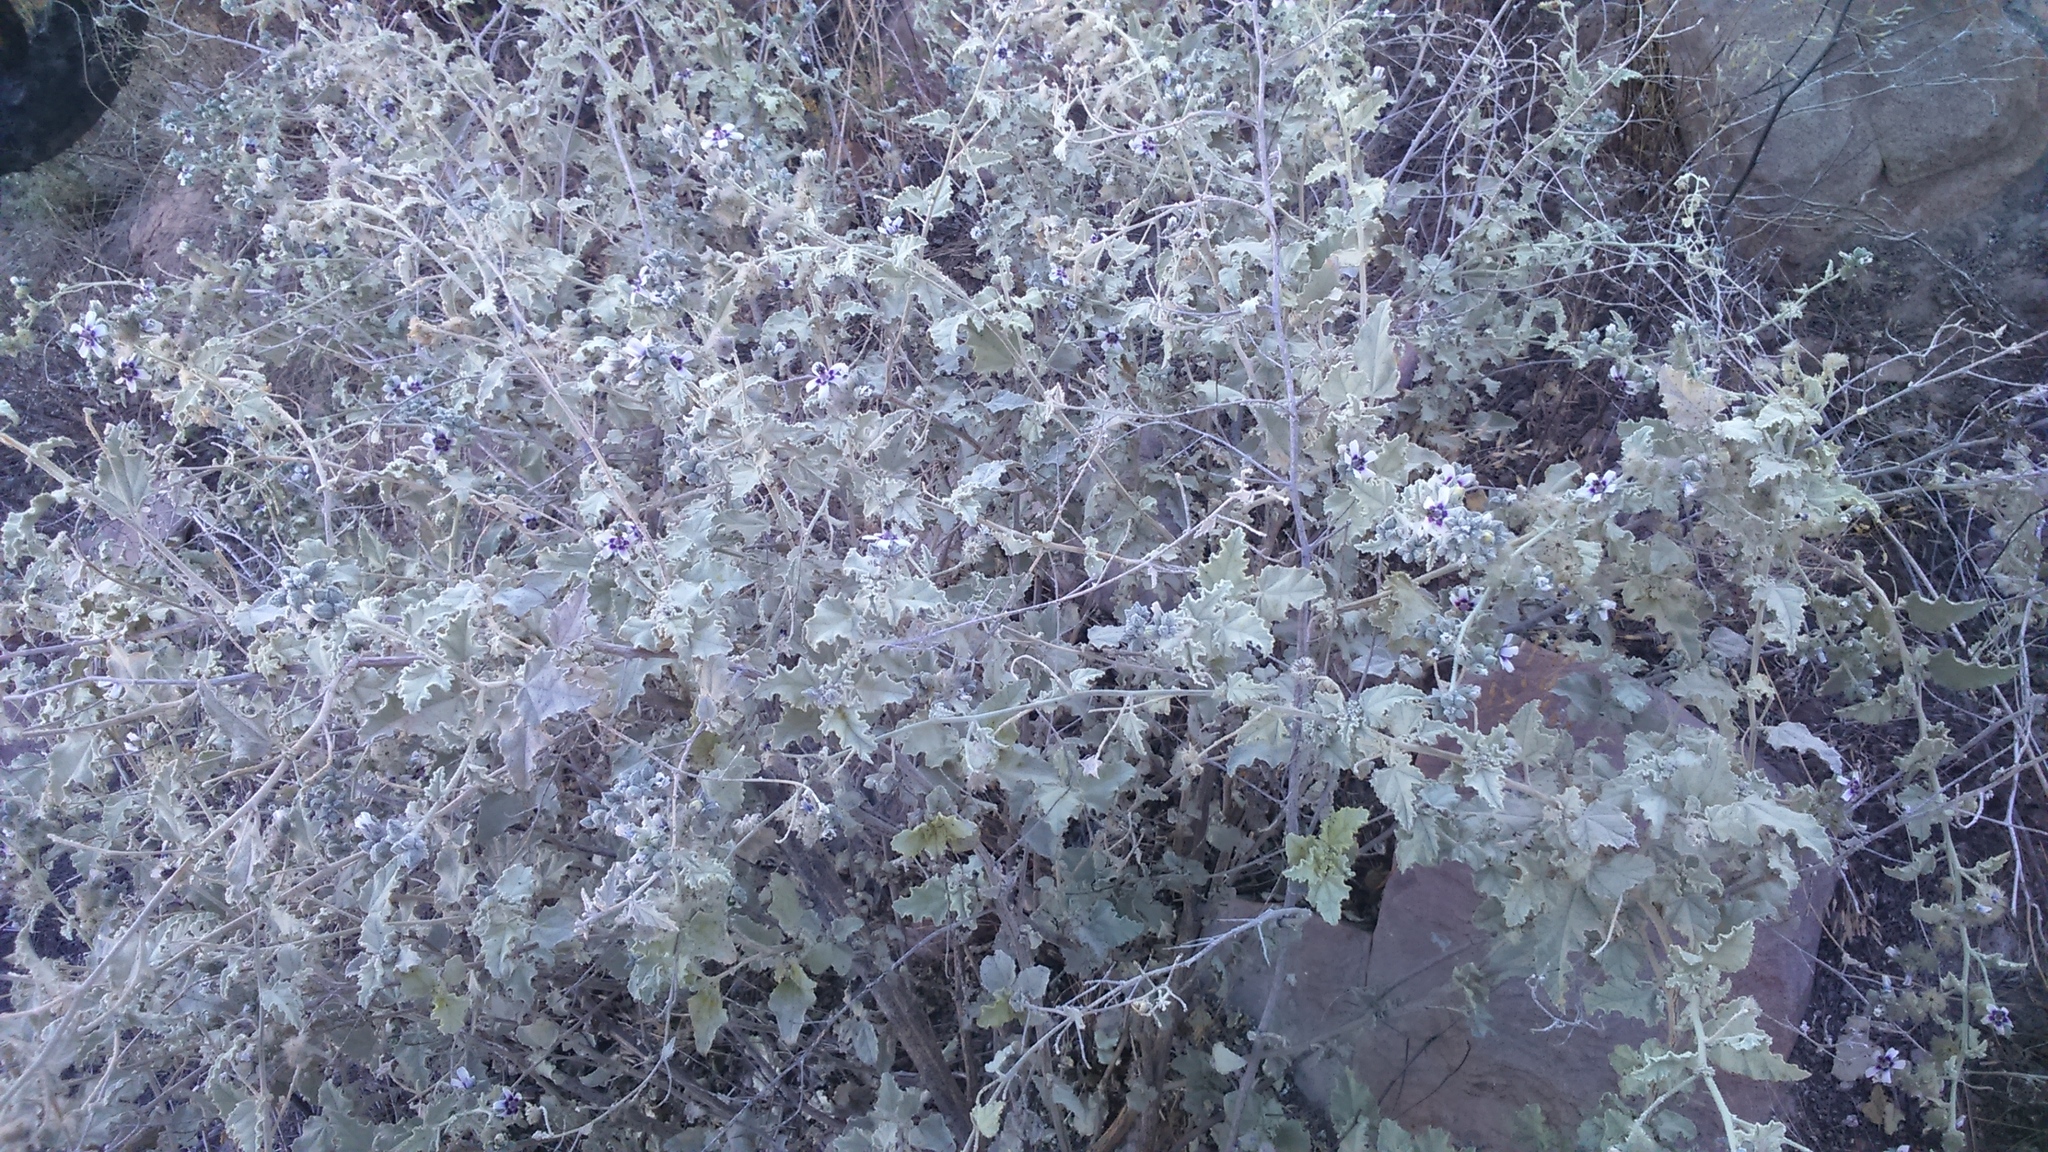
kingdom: Plantae
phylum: Tracheophyta
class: Magnoliopsida
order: Malvales
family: Malvaceae
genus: Tarasa
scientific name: Tarasa operculata
